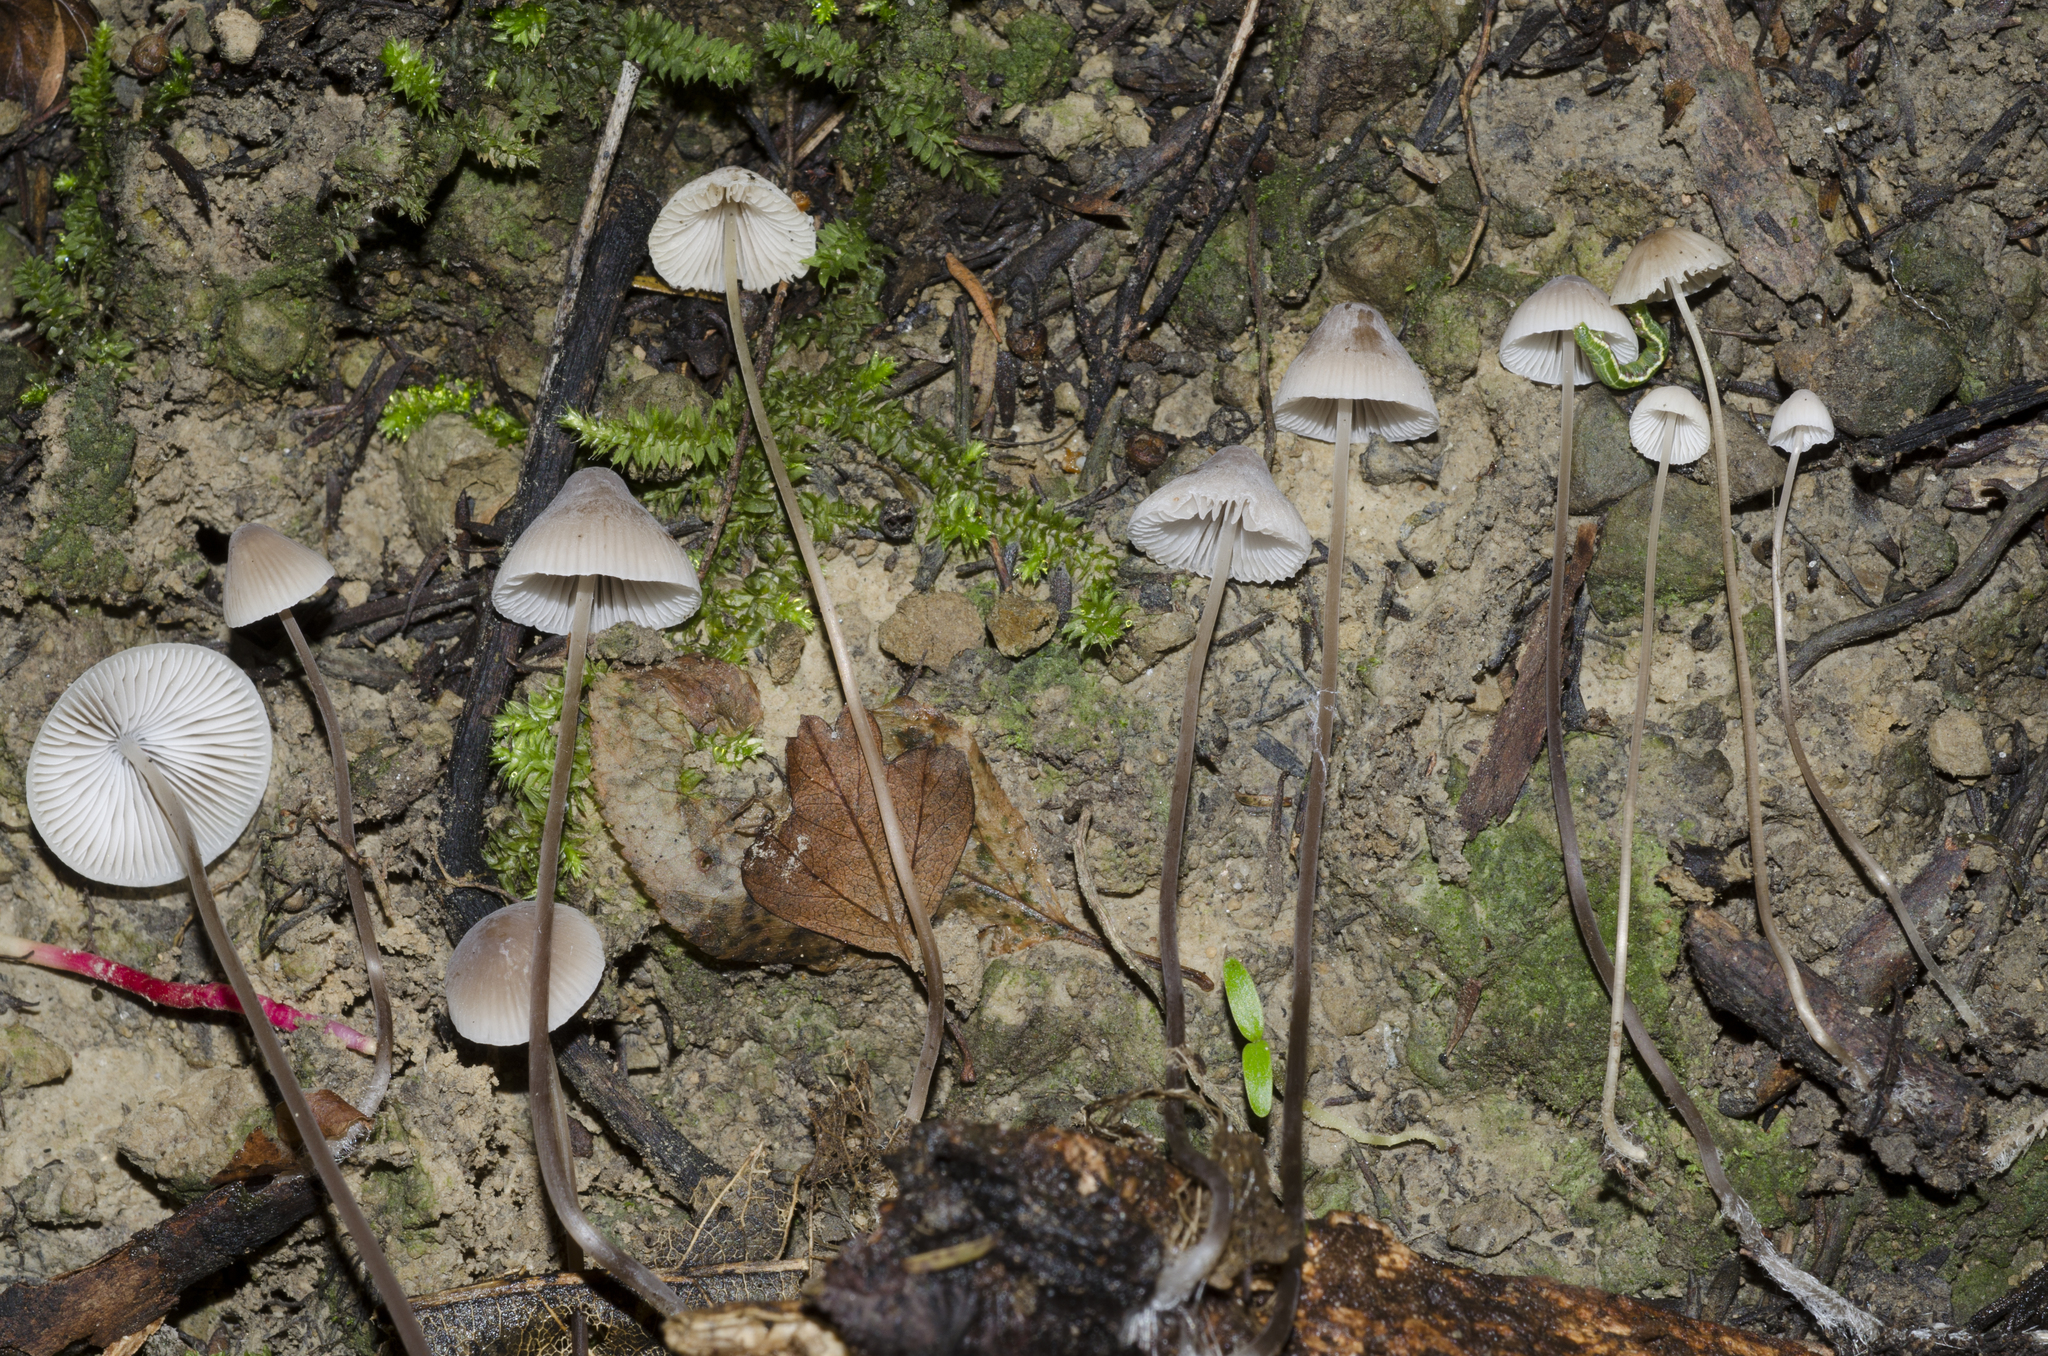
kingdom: Fungi
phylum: Basidiomycota
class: Agaricomycetes
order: Agaricales
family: Mycenaceae
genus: Mycena
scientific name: Mycena austrofilopes
